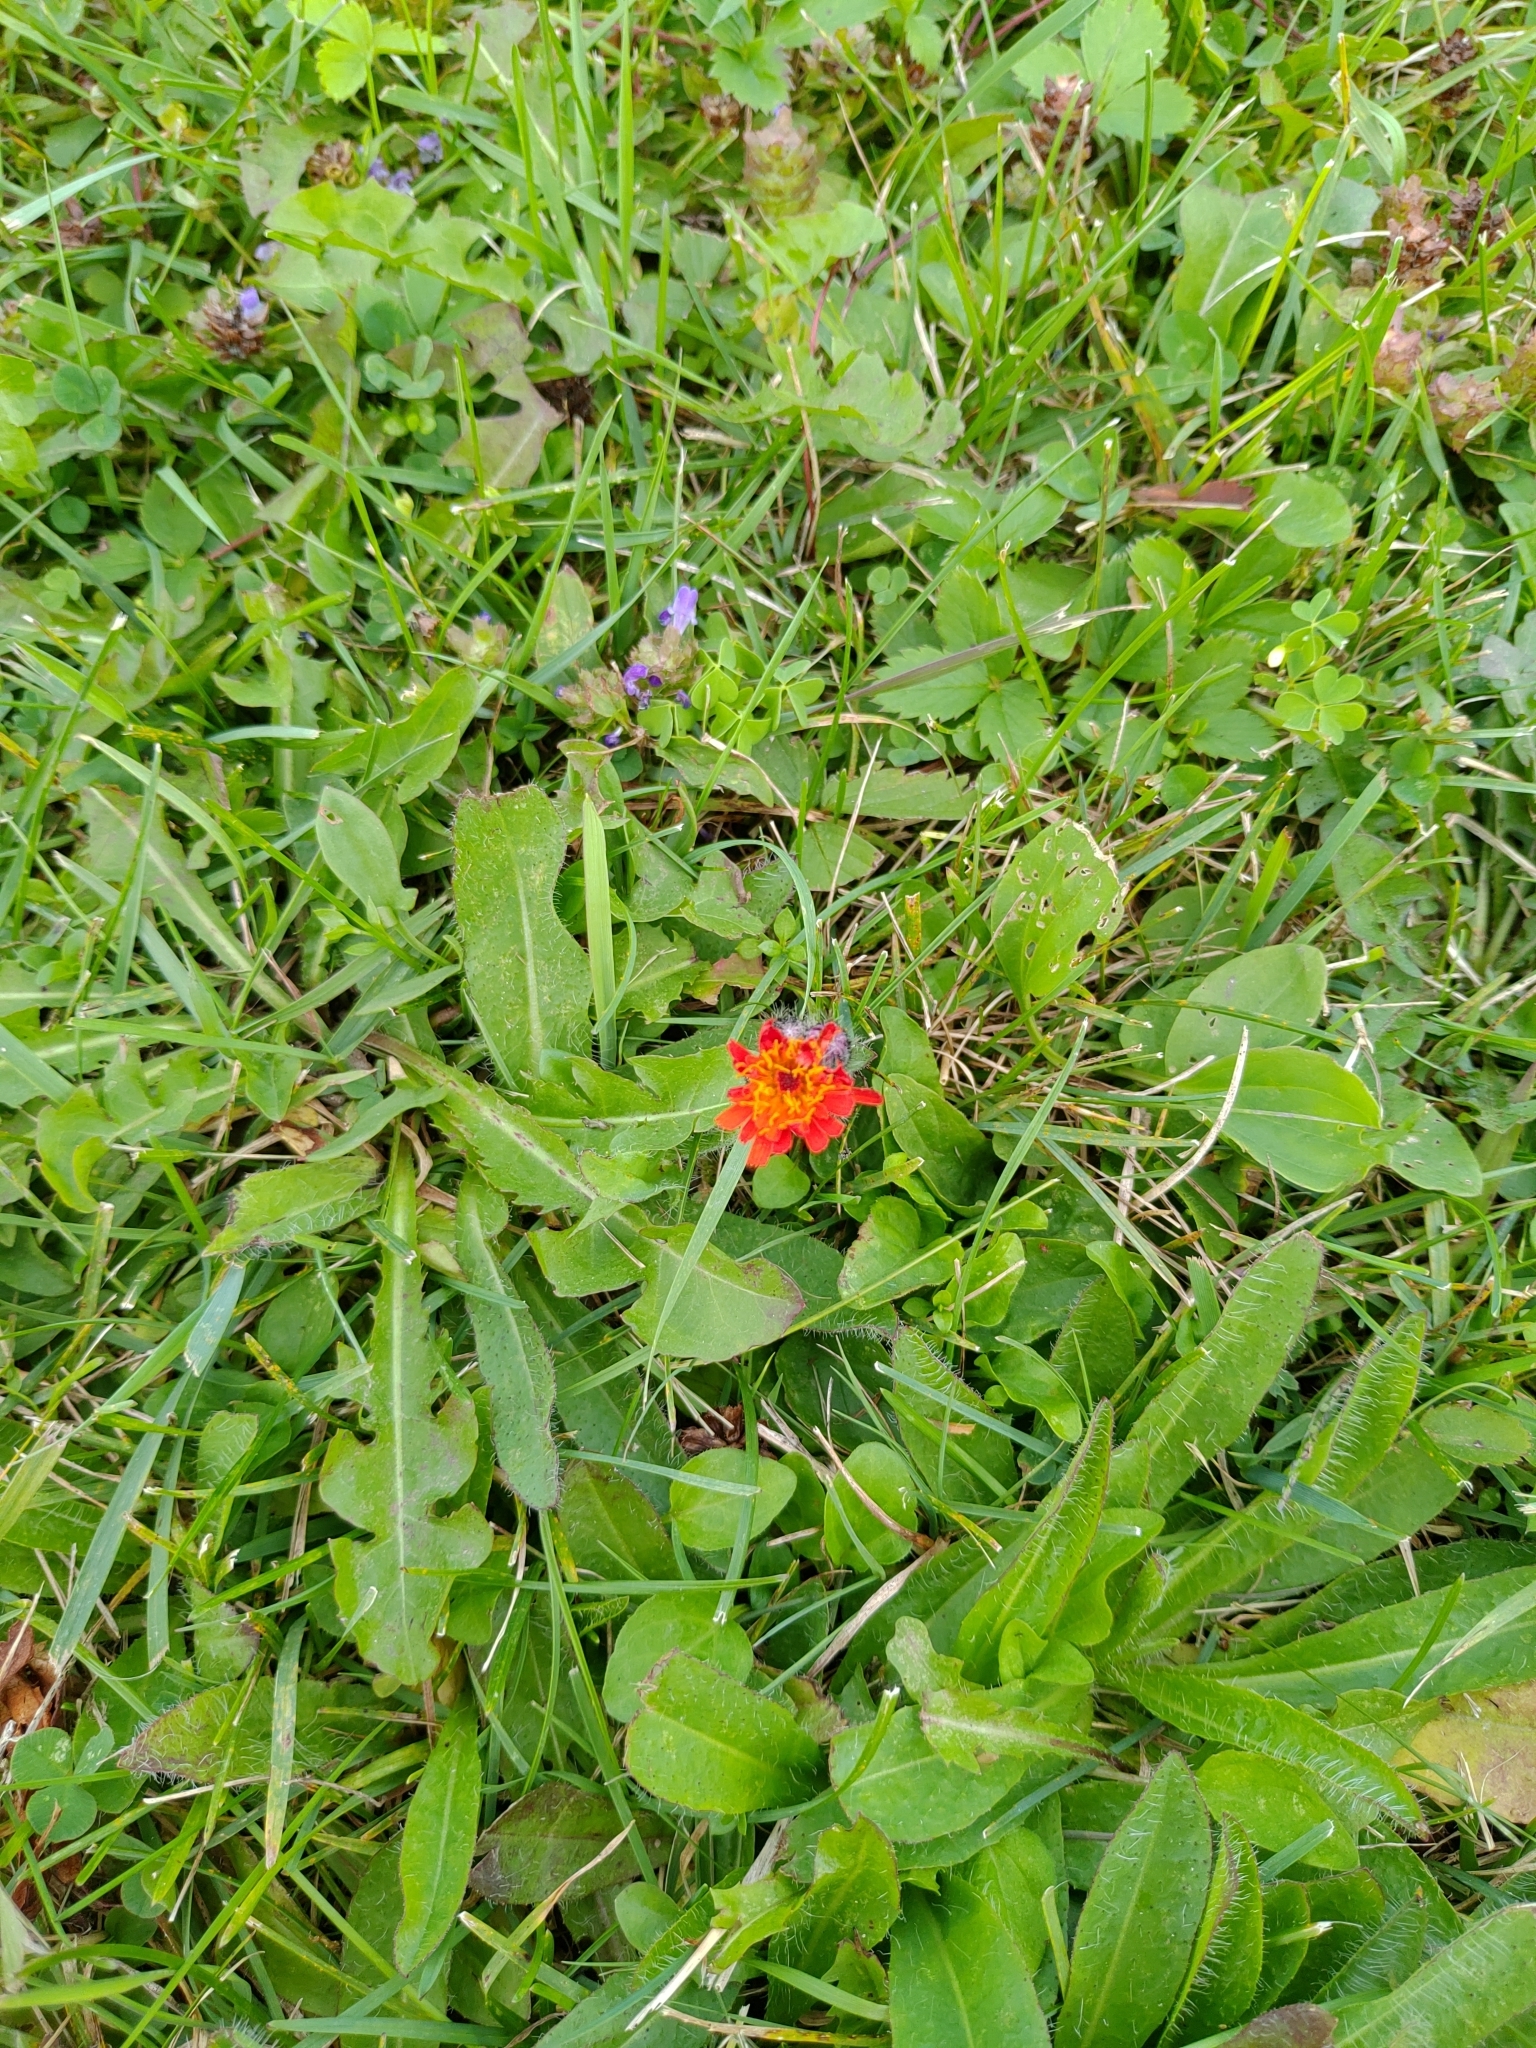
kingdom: Plantae
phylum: Tracheophyta
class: Magnoliopsida
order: Asterales
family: Asteraceae
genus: Pilosella
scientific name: Pilosella aurantiaca
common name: Fox-and-cubs
